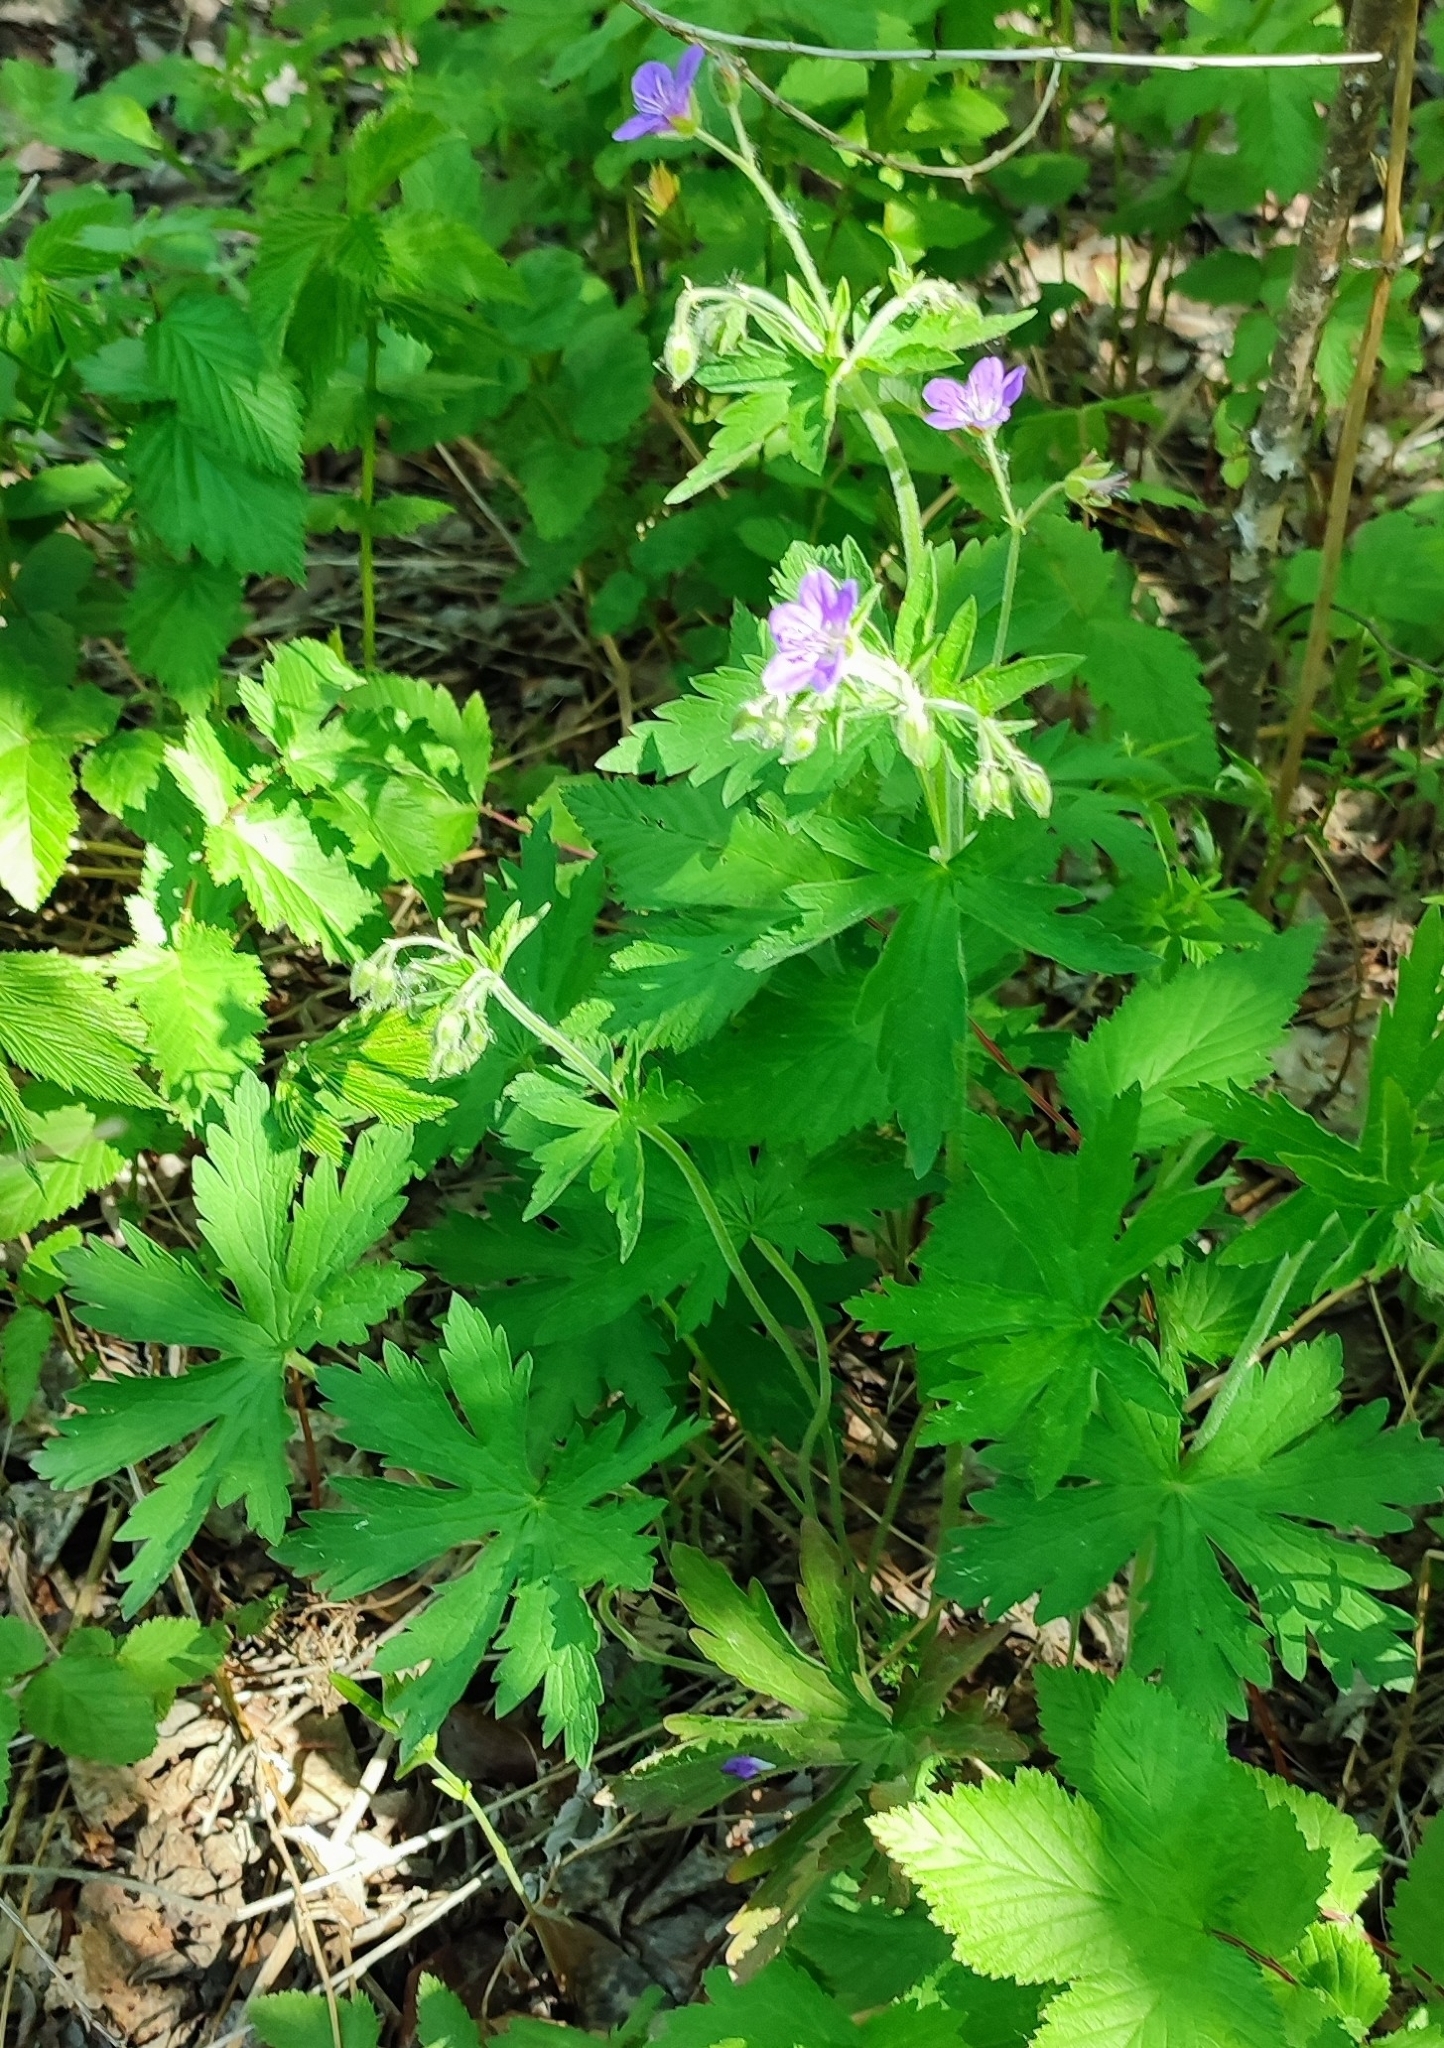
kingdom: Plantae
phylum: Tracheophyta
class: Magnoliopsida
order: Geraniales
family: Geraniaceae
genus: Geranium
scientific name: Geranium sylvaticum
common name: Wood crane's-bill
